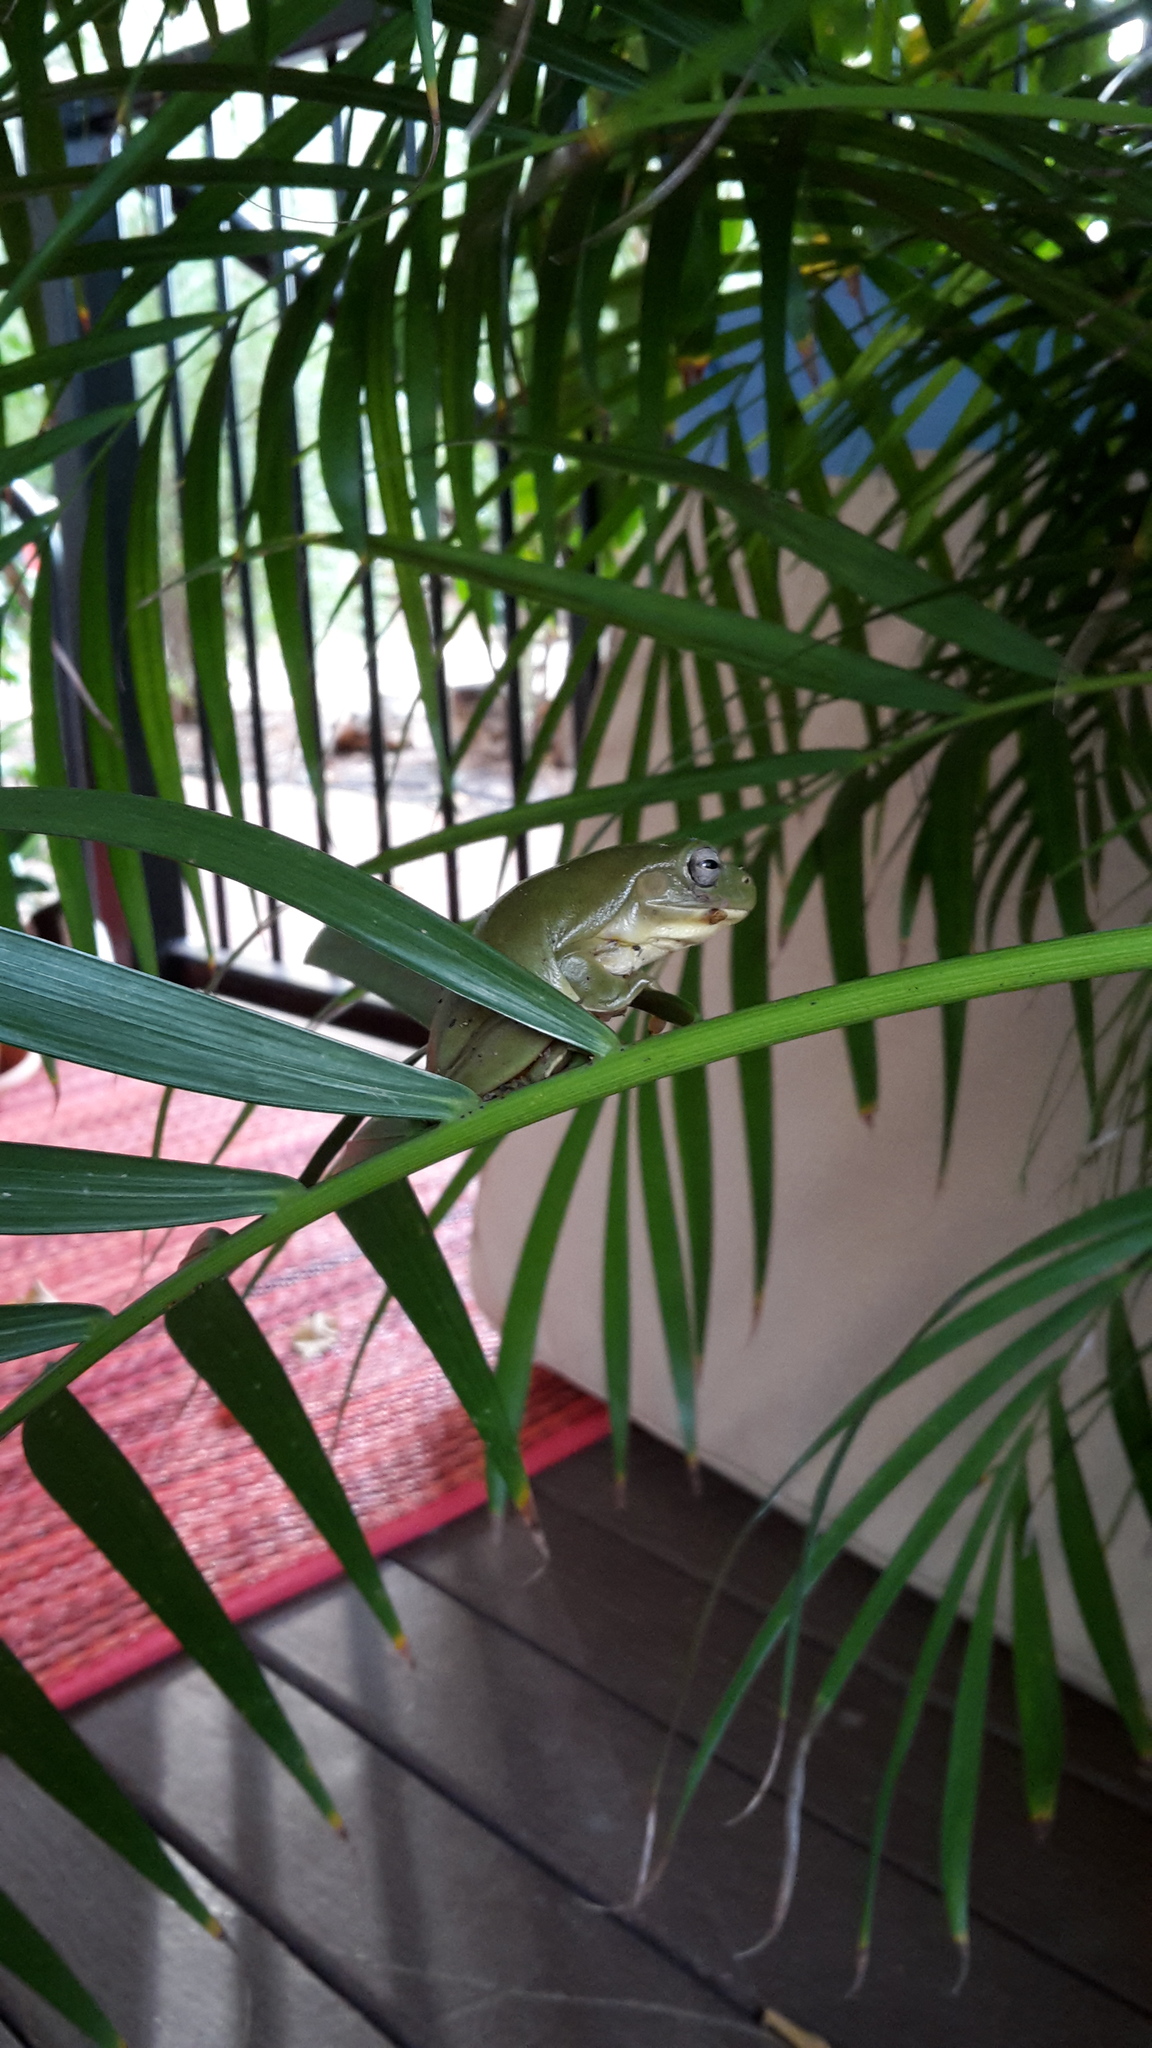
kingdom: Animalia
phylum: Chordata
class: Amphibia
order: Anura
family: Pelodryadidae
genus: Ranoidea
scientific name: Ranoidea caerulea
